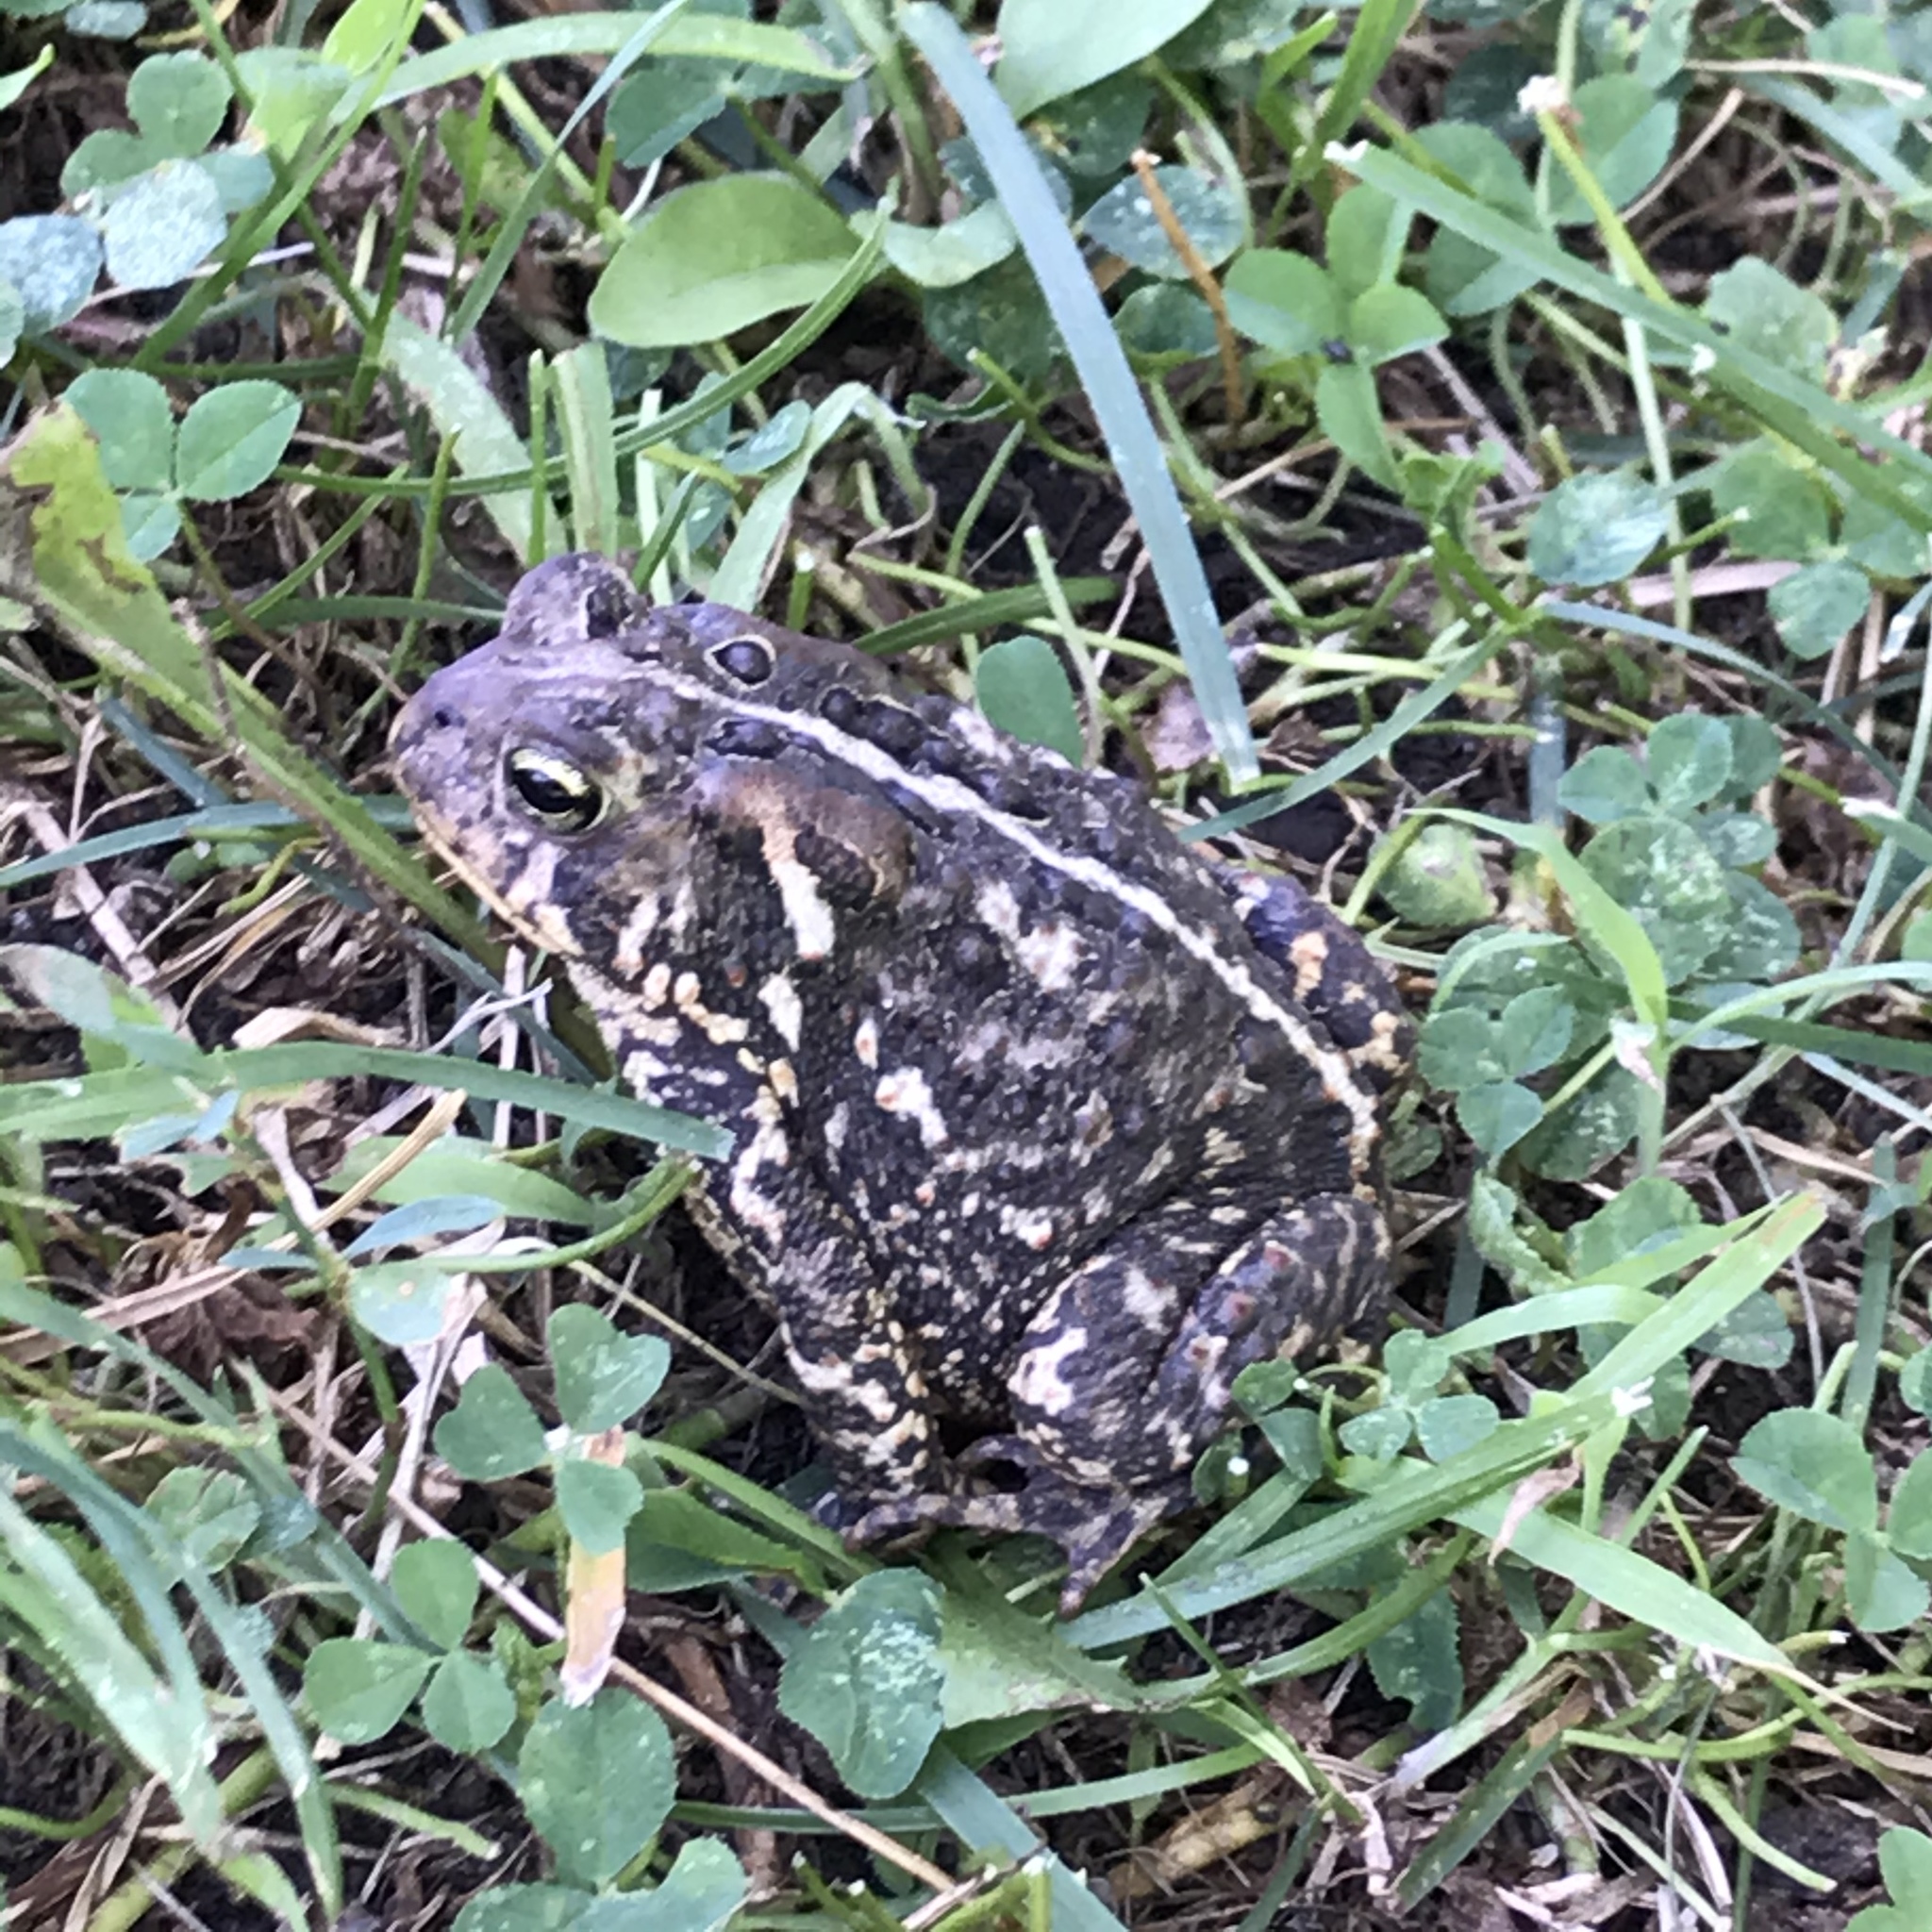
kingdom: Animalia
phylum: Chordata
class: Amphibia
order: Anura
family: Bufonidae
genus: Anaxyrus
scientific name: Anaxyrus americanus
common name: American toad
